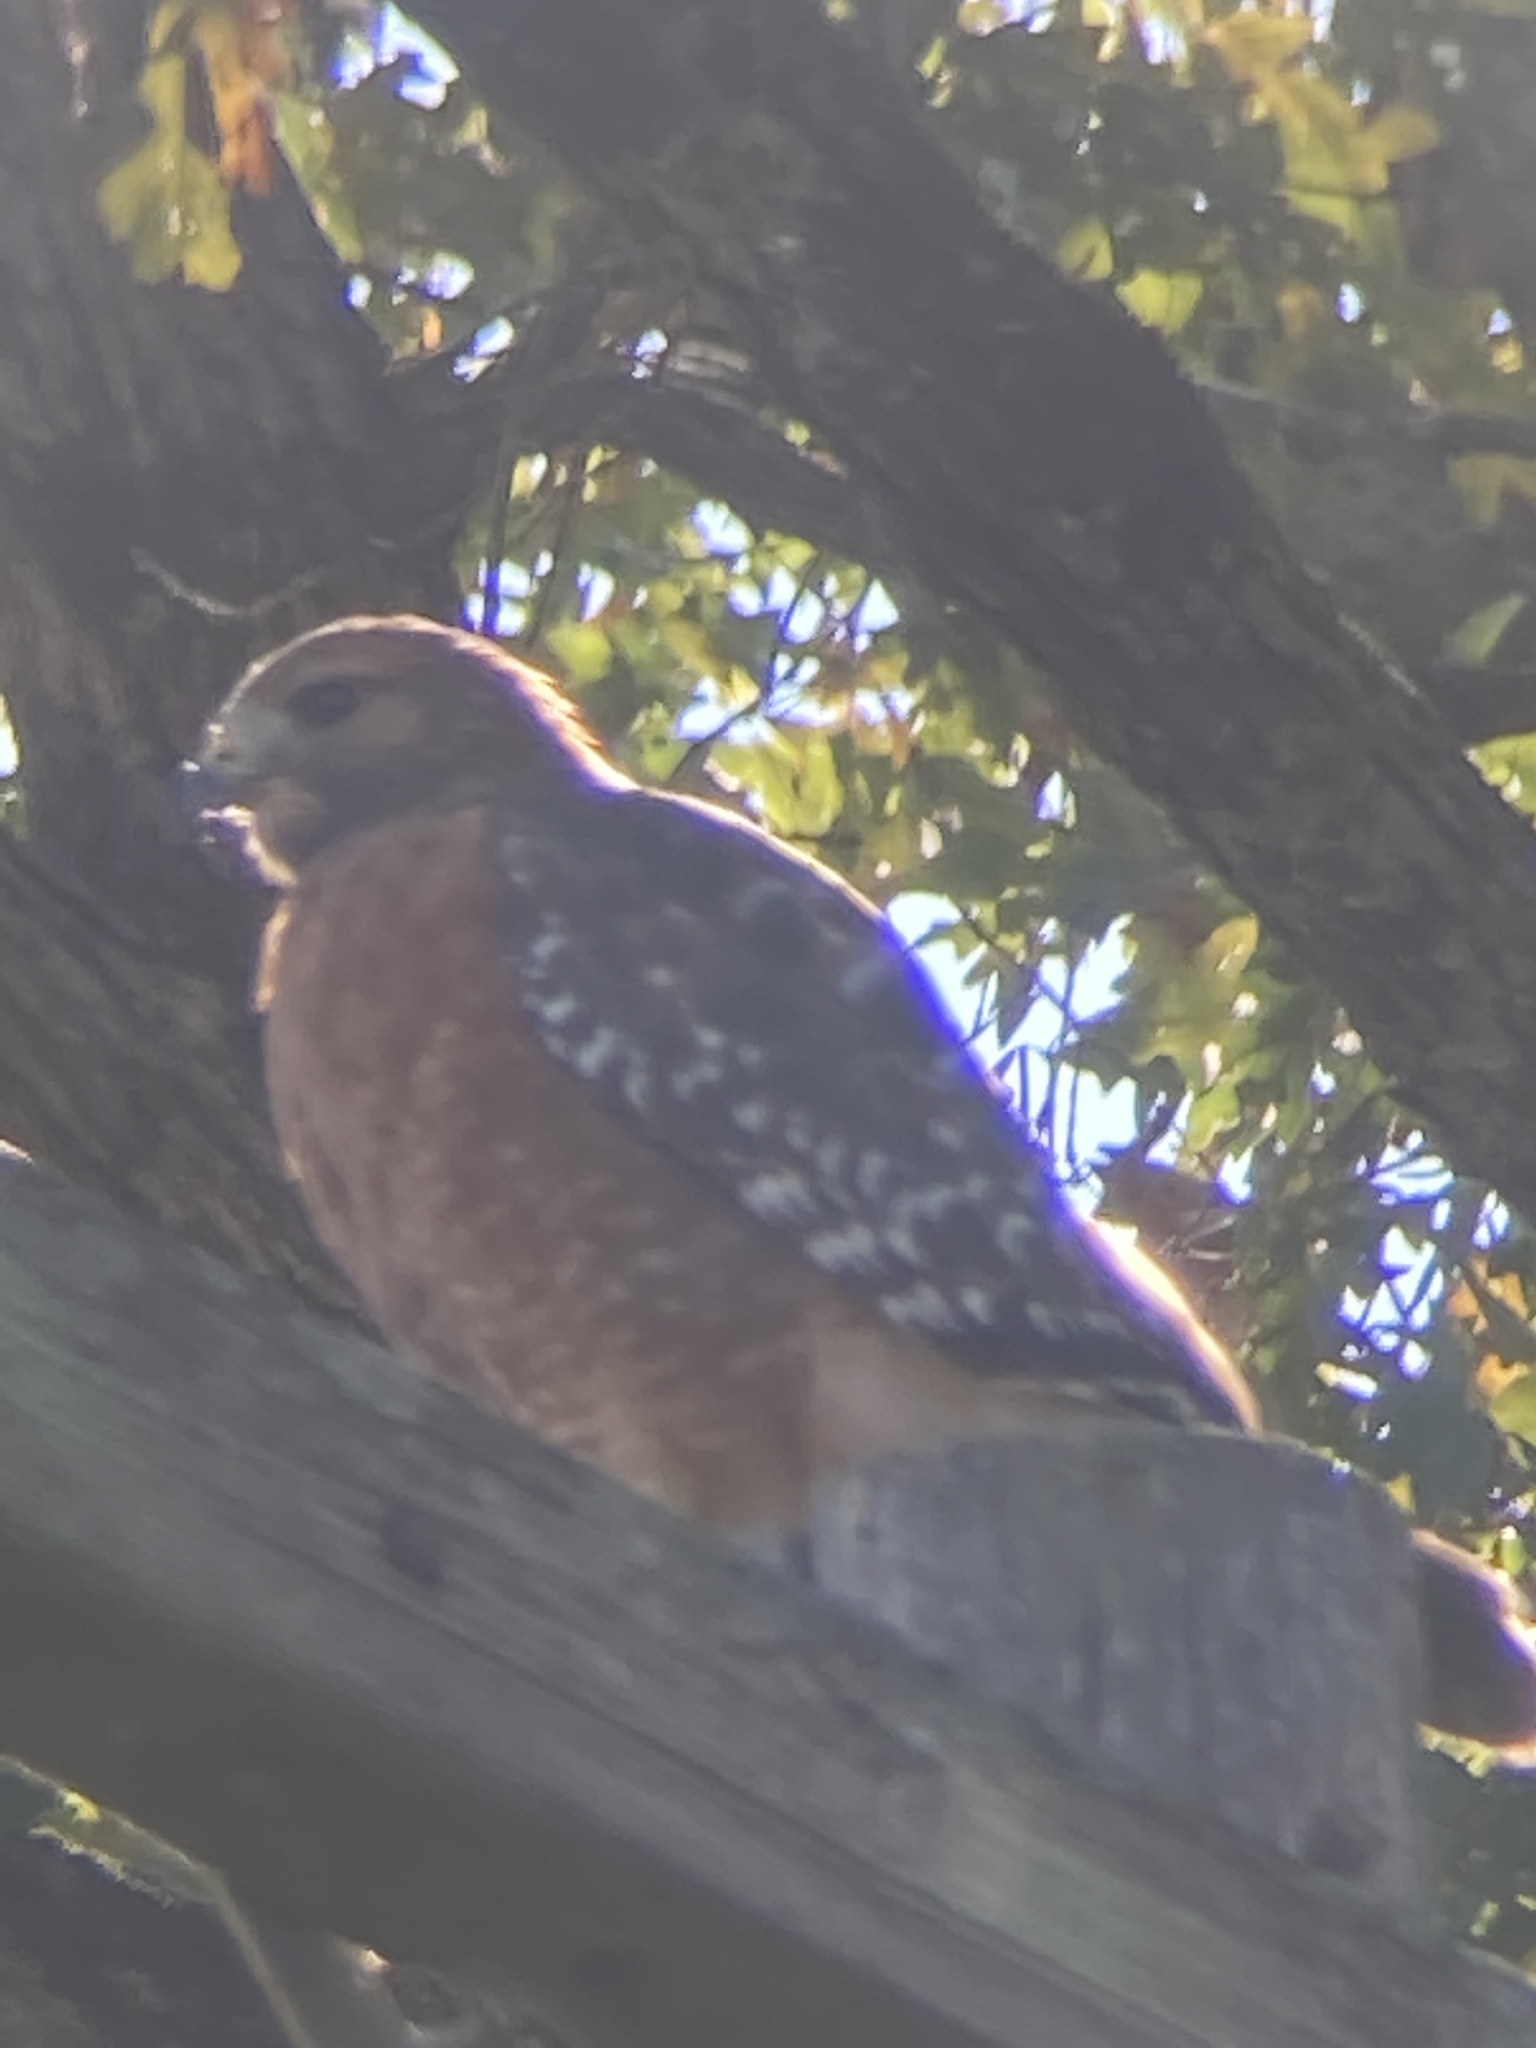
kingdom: Animalia
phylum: Chordata
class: Aves
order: Accipitriformes
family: Accipitridae
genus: Buteo
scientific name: Buteo lineatus
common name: Red-shouldered hawk
